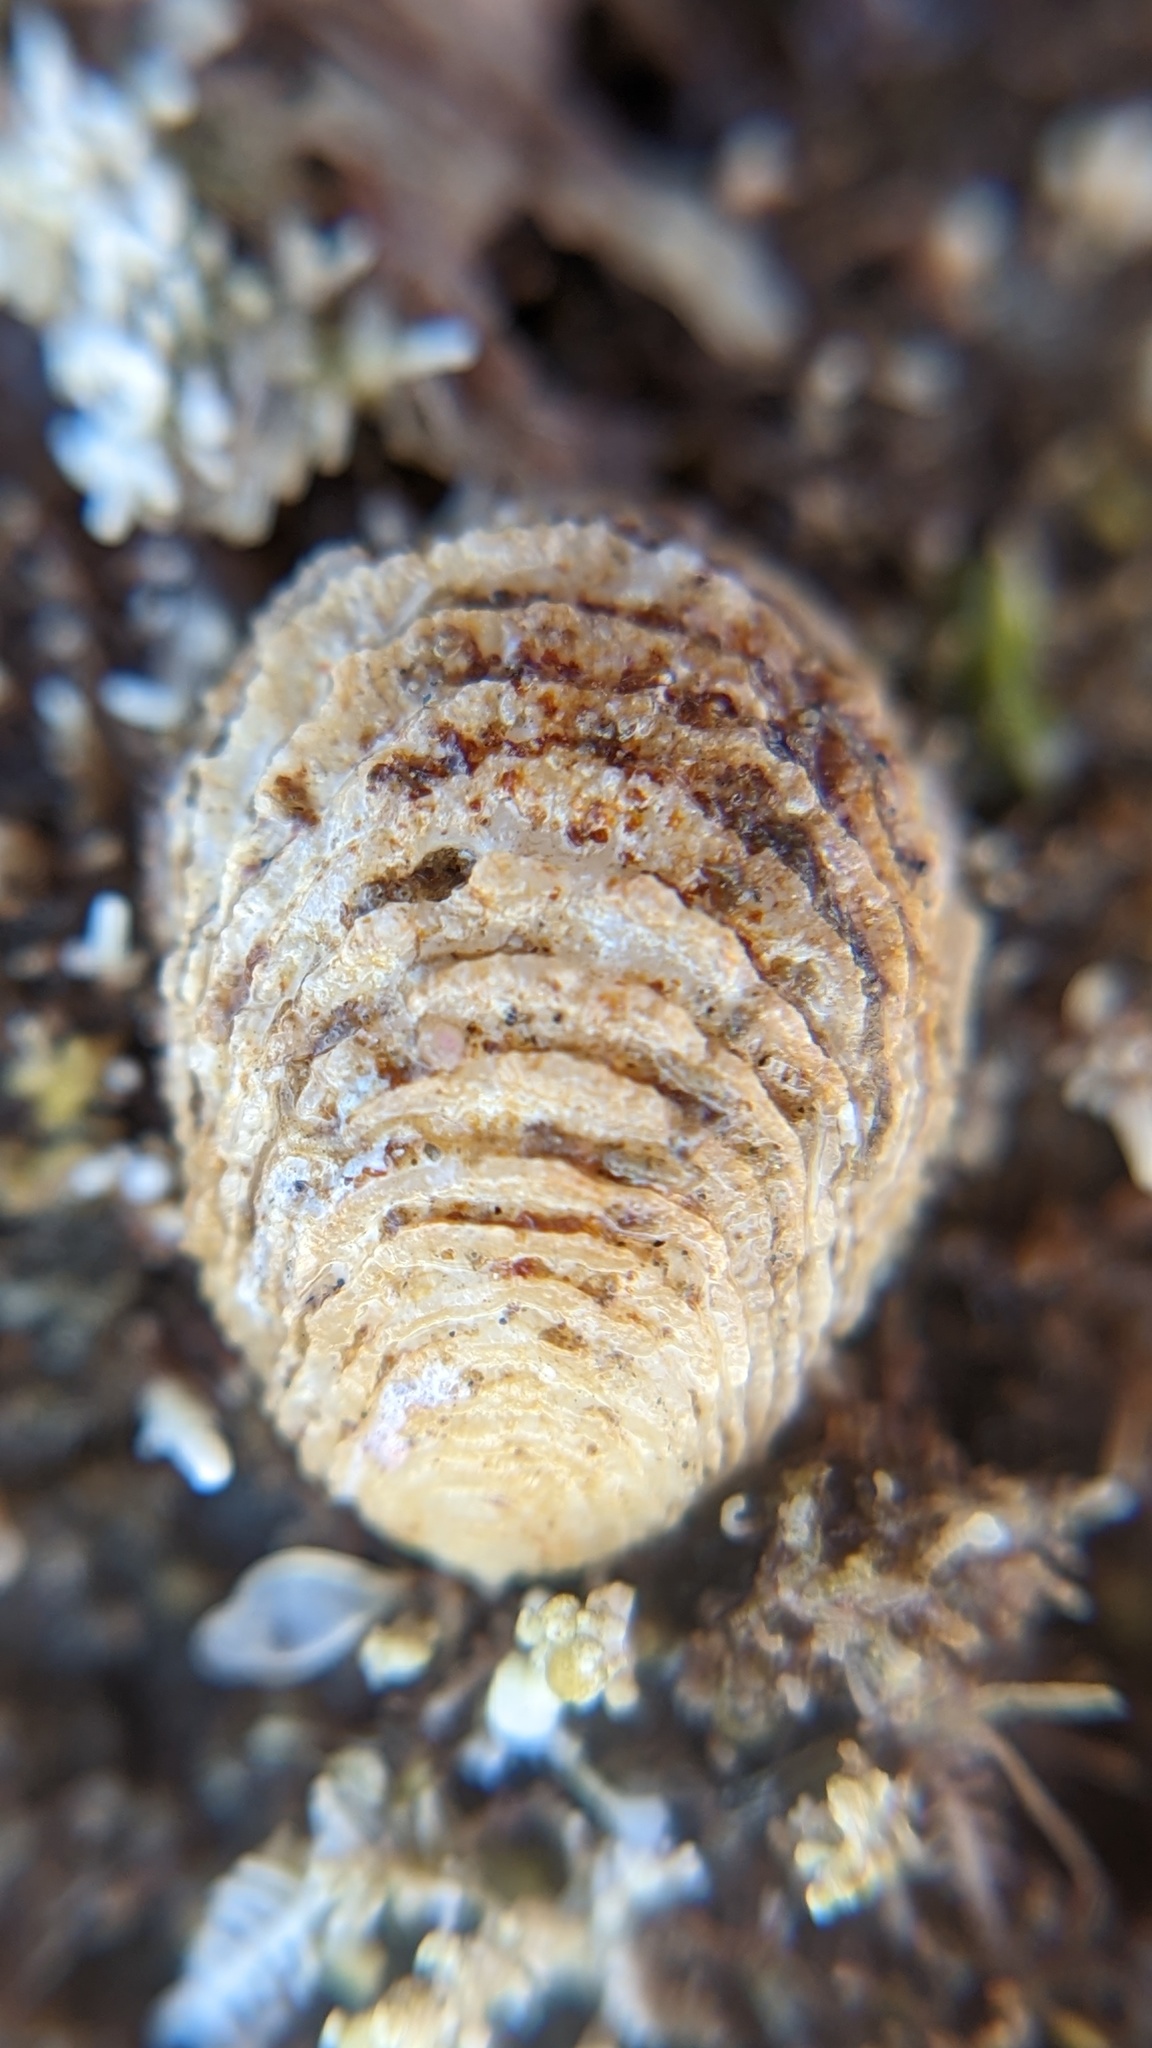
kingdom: Animalia
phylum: Mollusca
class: Gastropoda
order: Littorinimorpha
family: Hipponicidae
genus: Hipponix
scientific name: Hipponix panamensis
